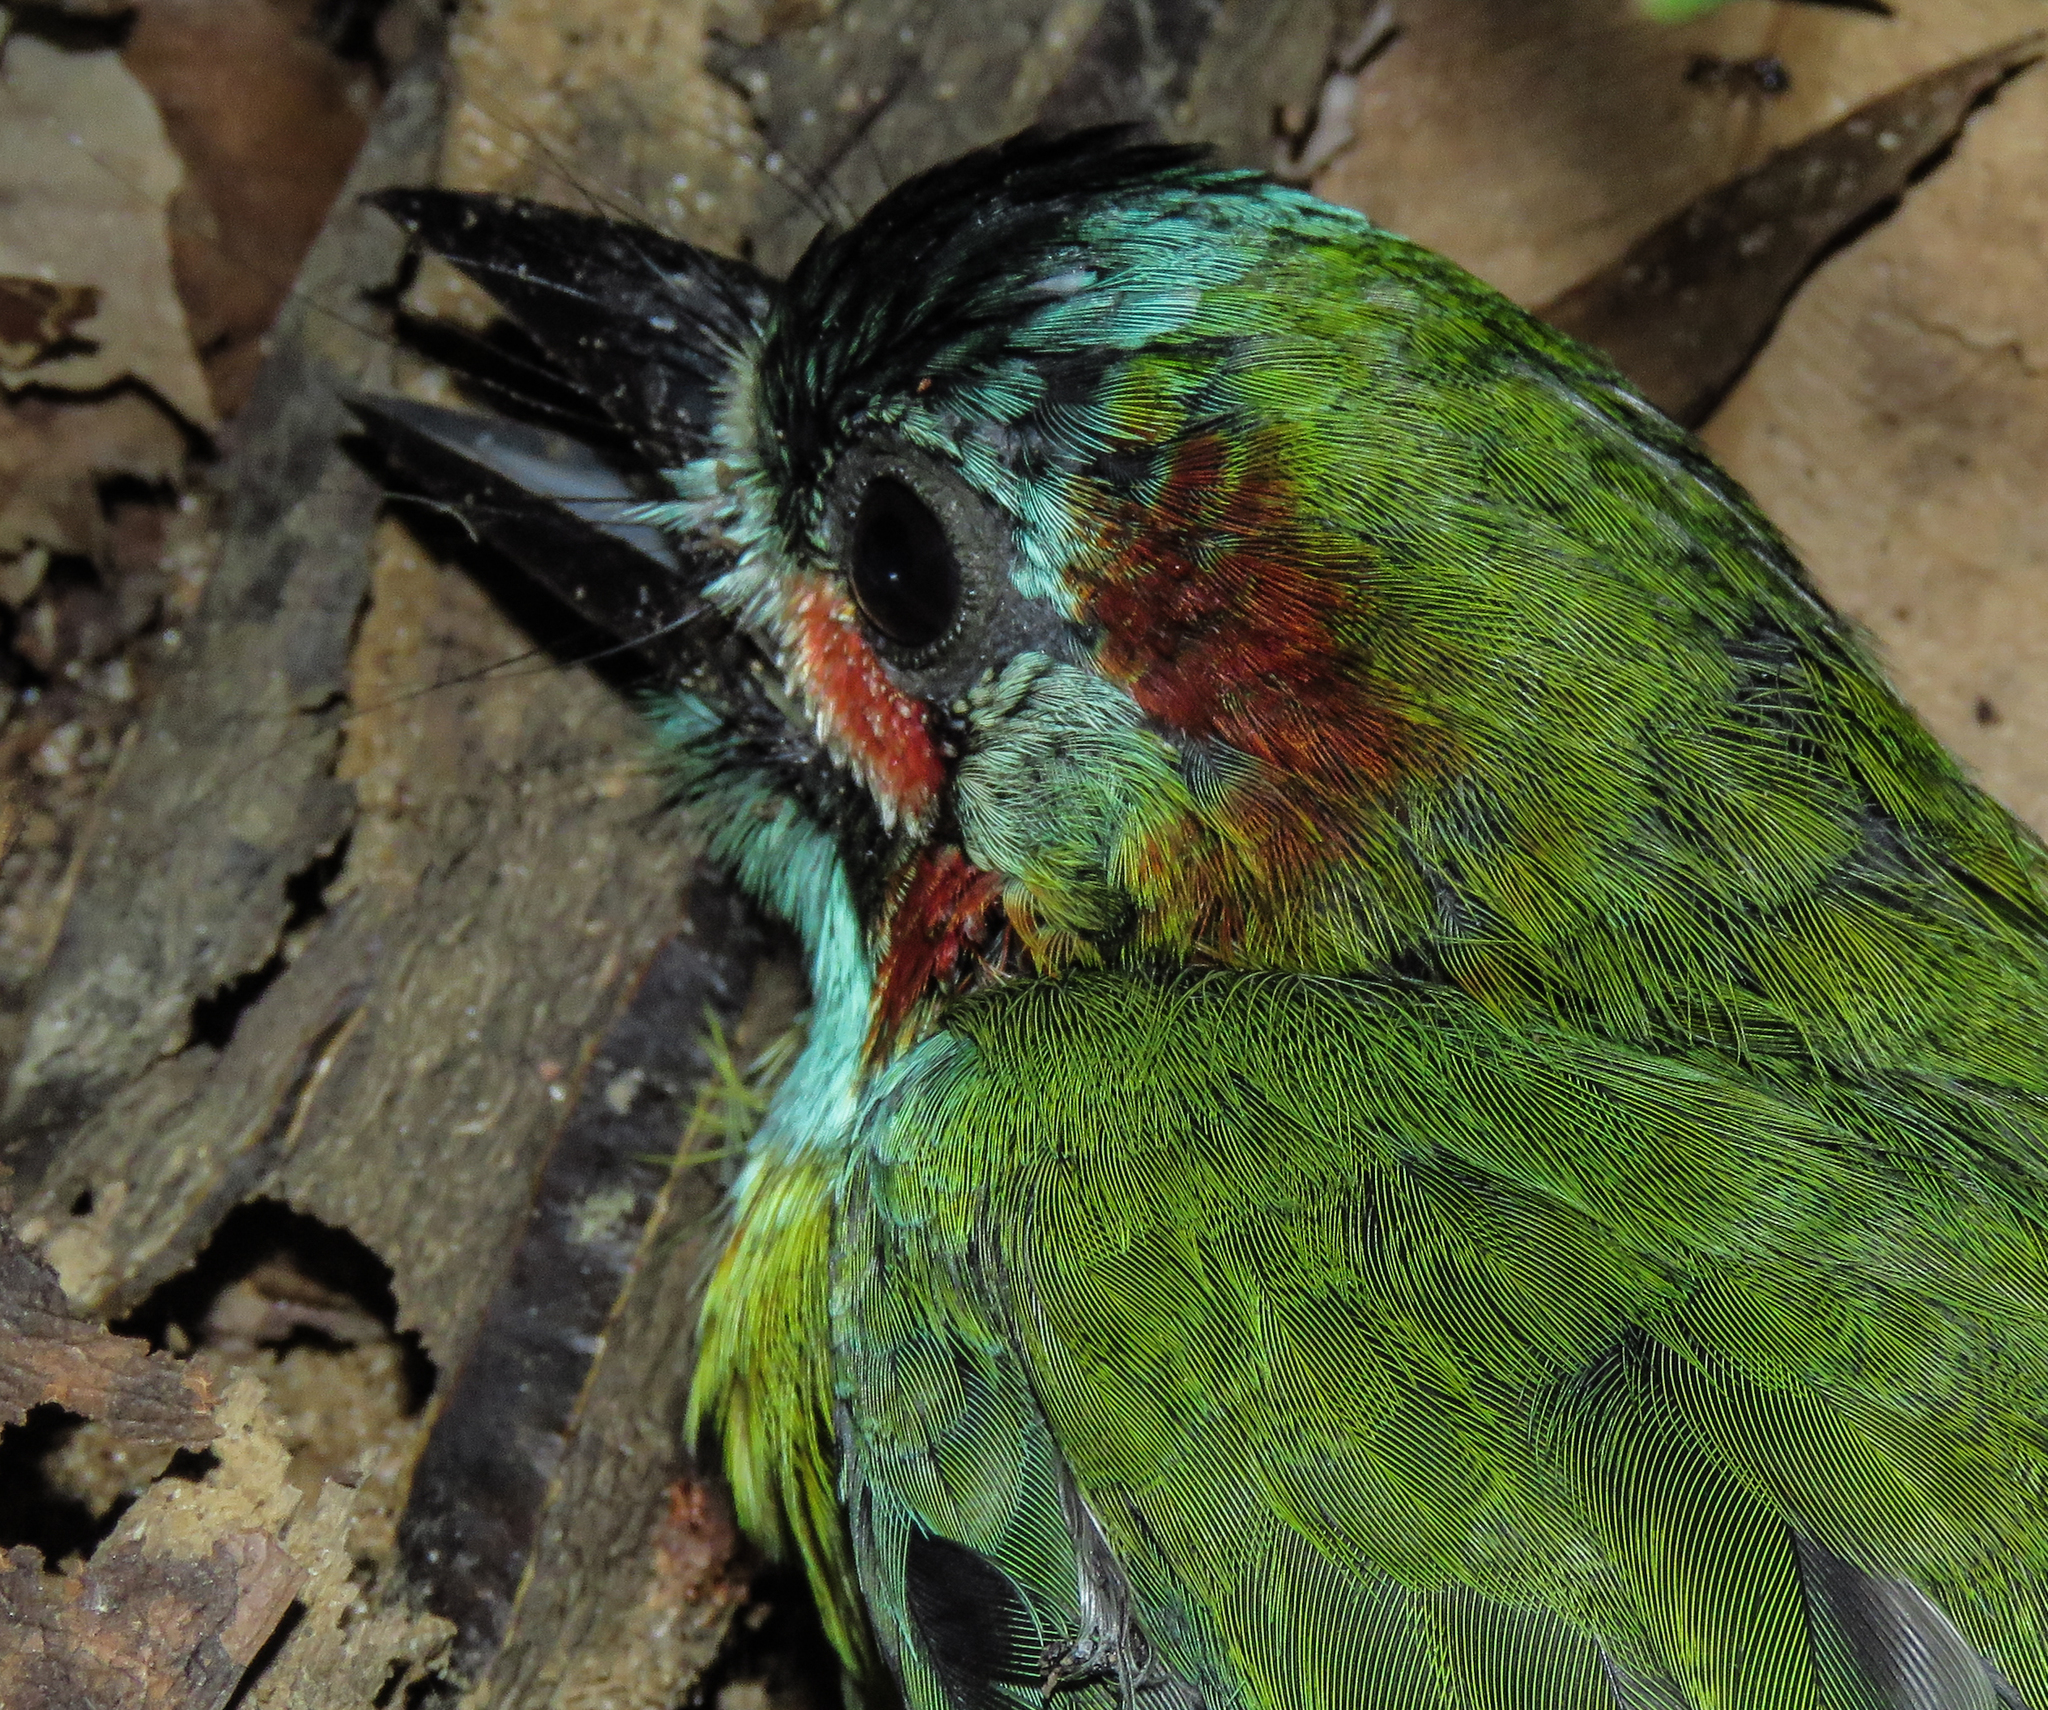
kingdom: Animalia
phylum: Chordata
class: Aves
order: Piciformes
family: Megalaimidae
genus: Psilopogon
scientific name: Psilopogon duvaucelii
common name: Blue-eared barbet
